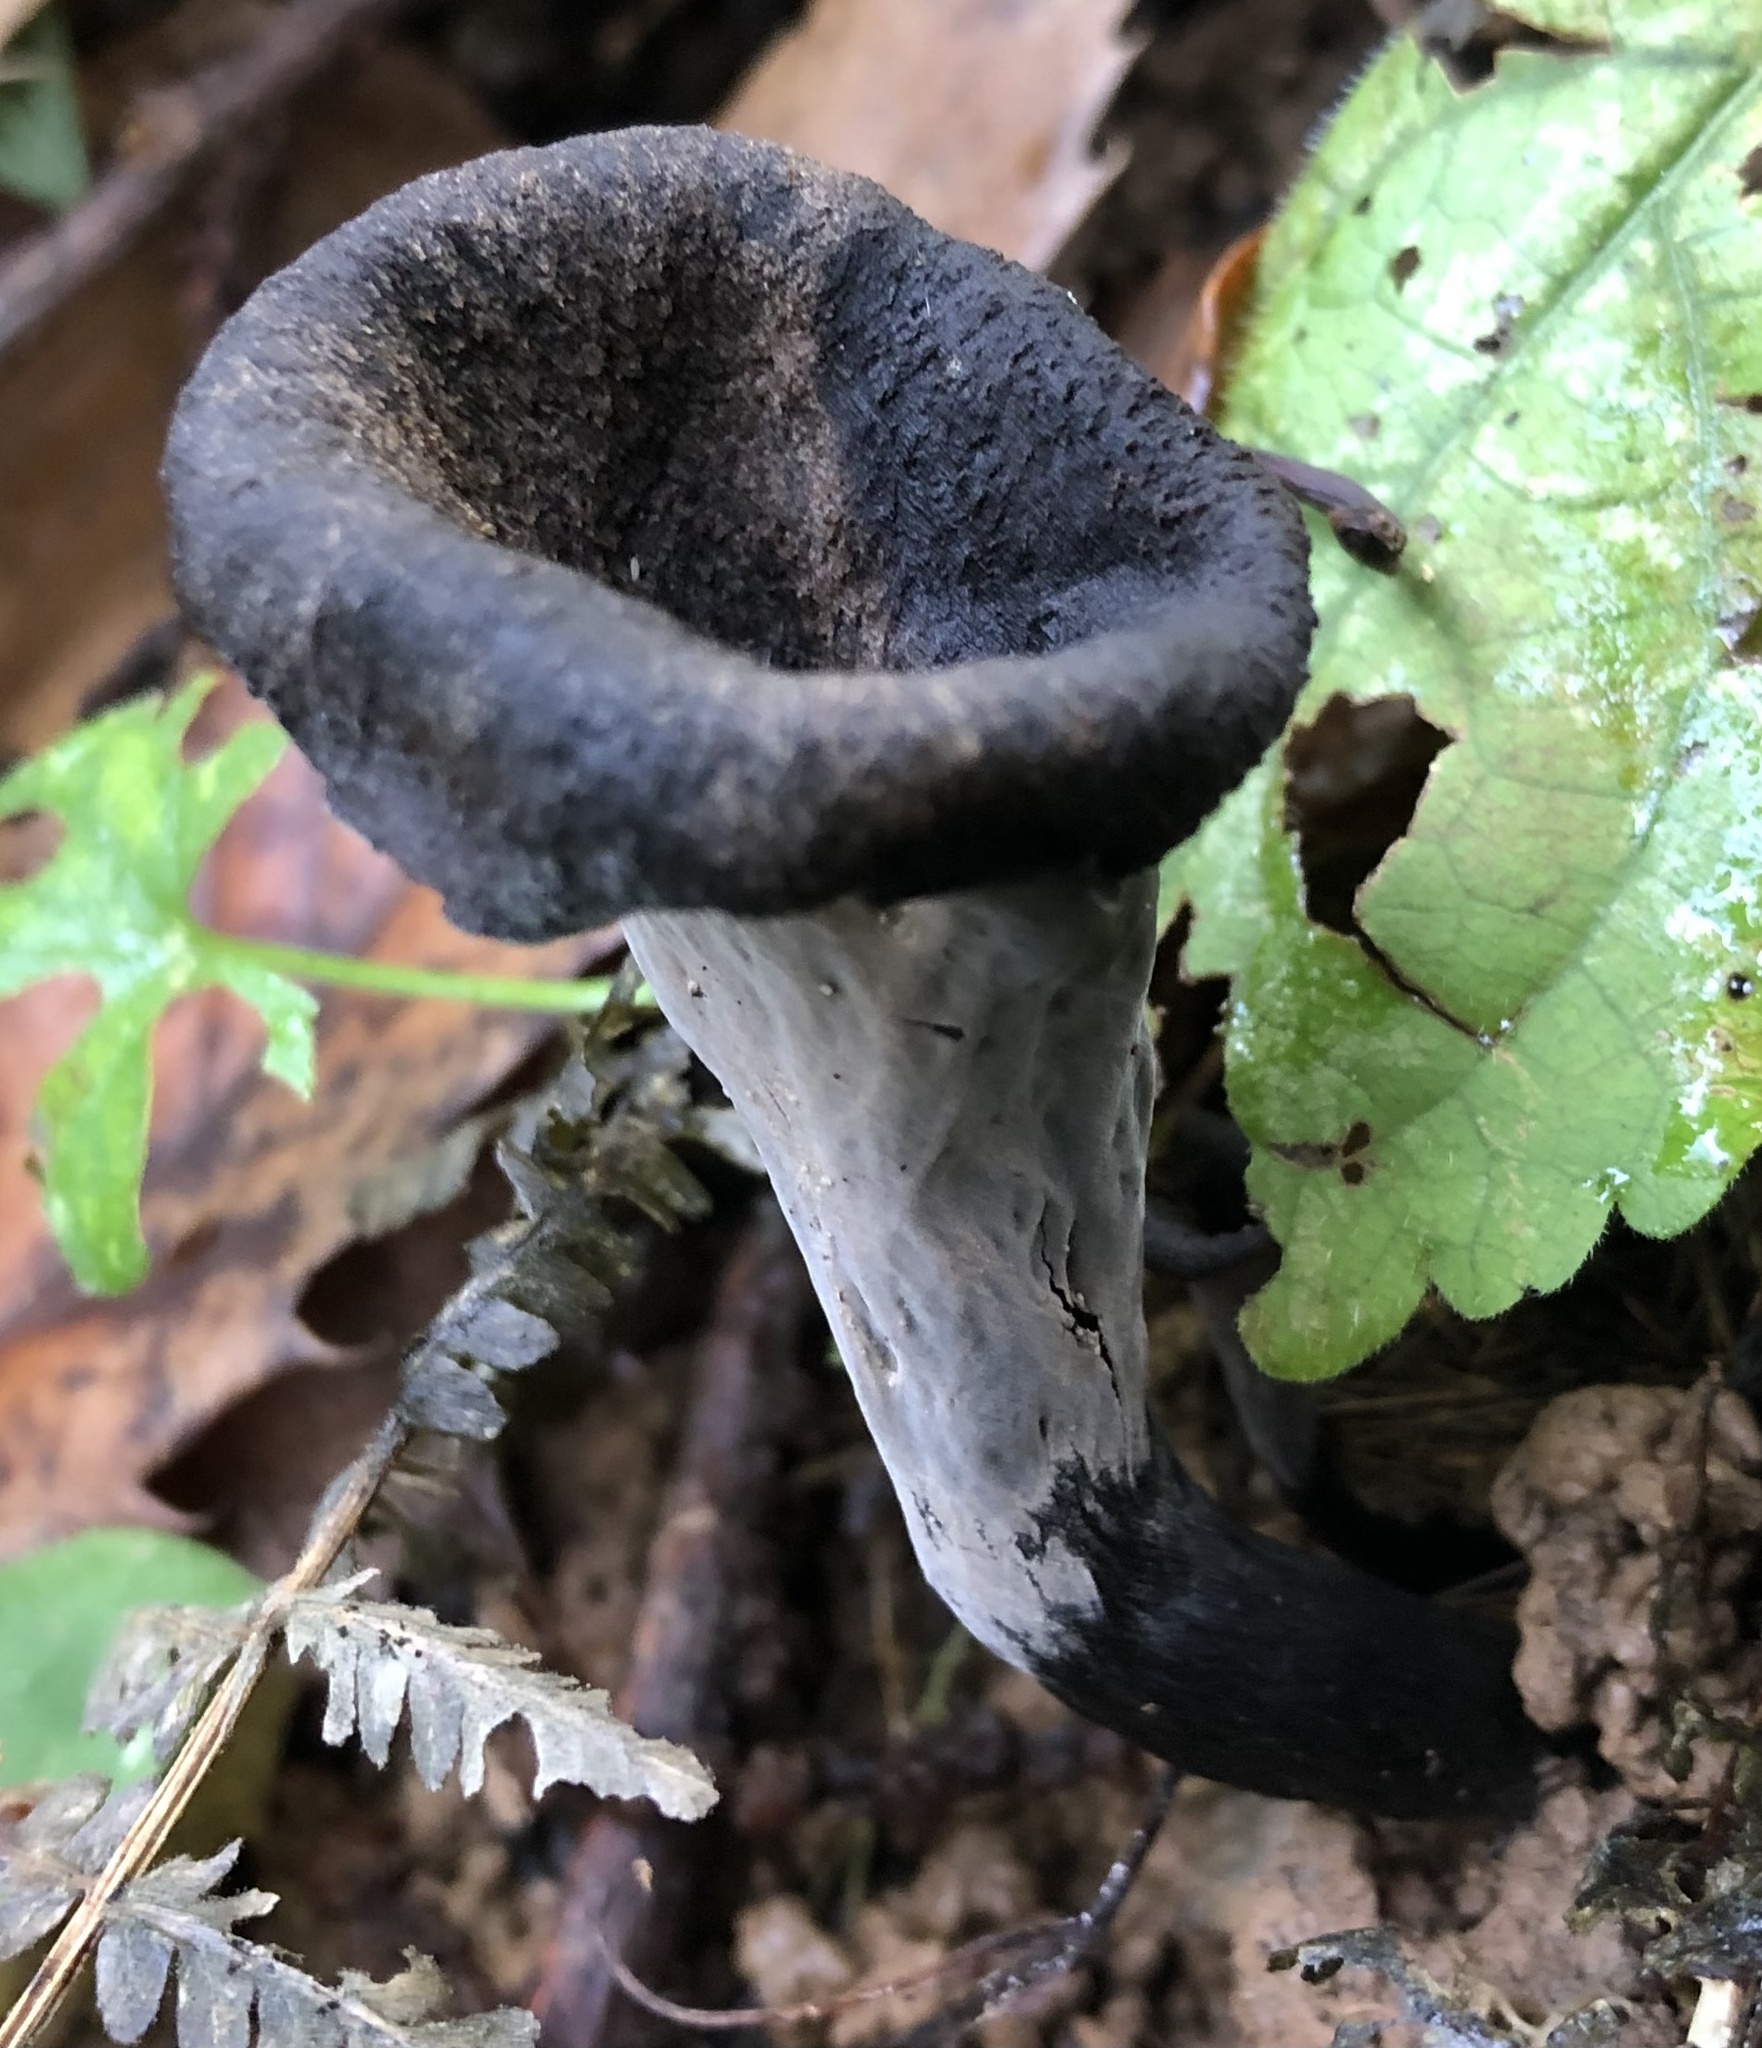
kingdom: Fungi
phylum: Basidiomycota
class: Agaricomycetes
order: Cantharellales
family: Hydnaceae
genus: Craterellus
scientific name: Craterellus cornucopioides
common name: Horn of plenty
